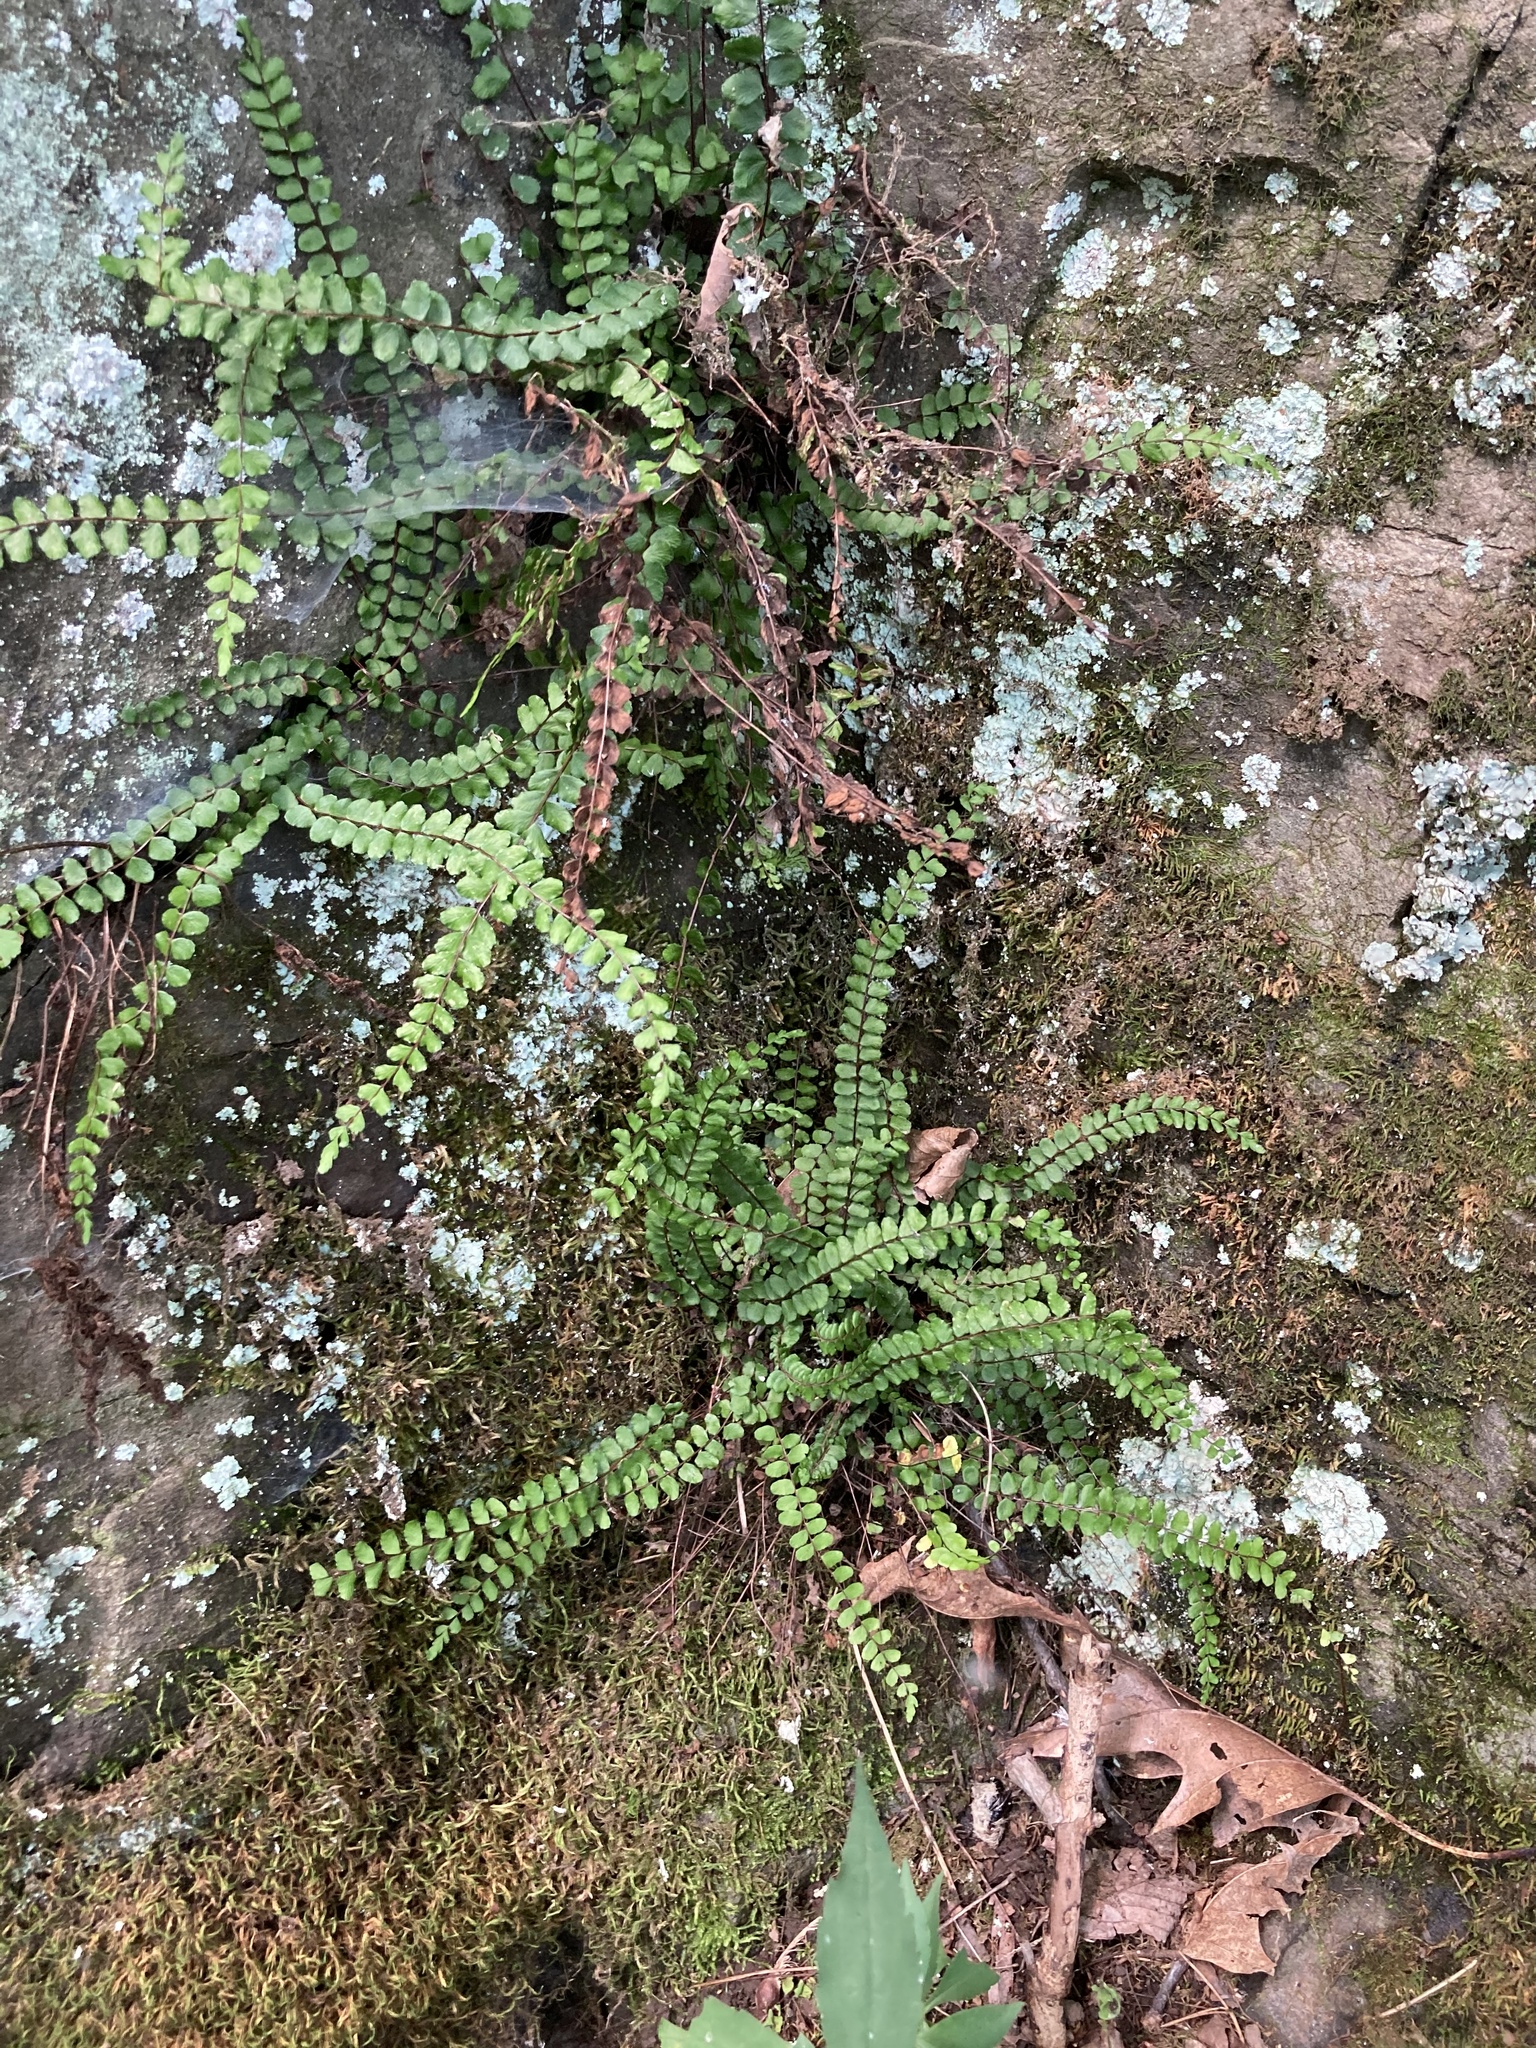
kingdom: Plantae
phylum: Tracheophyta
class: Polypodiopsida
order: Polypodiales
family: Aspleniaceae
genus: Asplenium
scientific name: Asplenium trichomanes
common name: Maidenhair spleenwort
